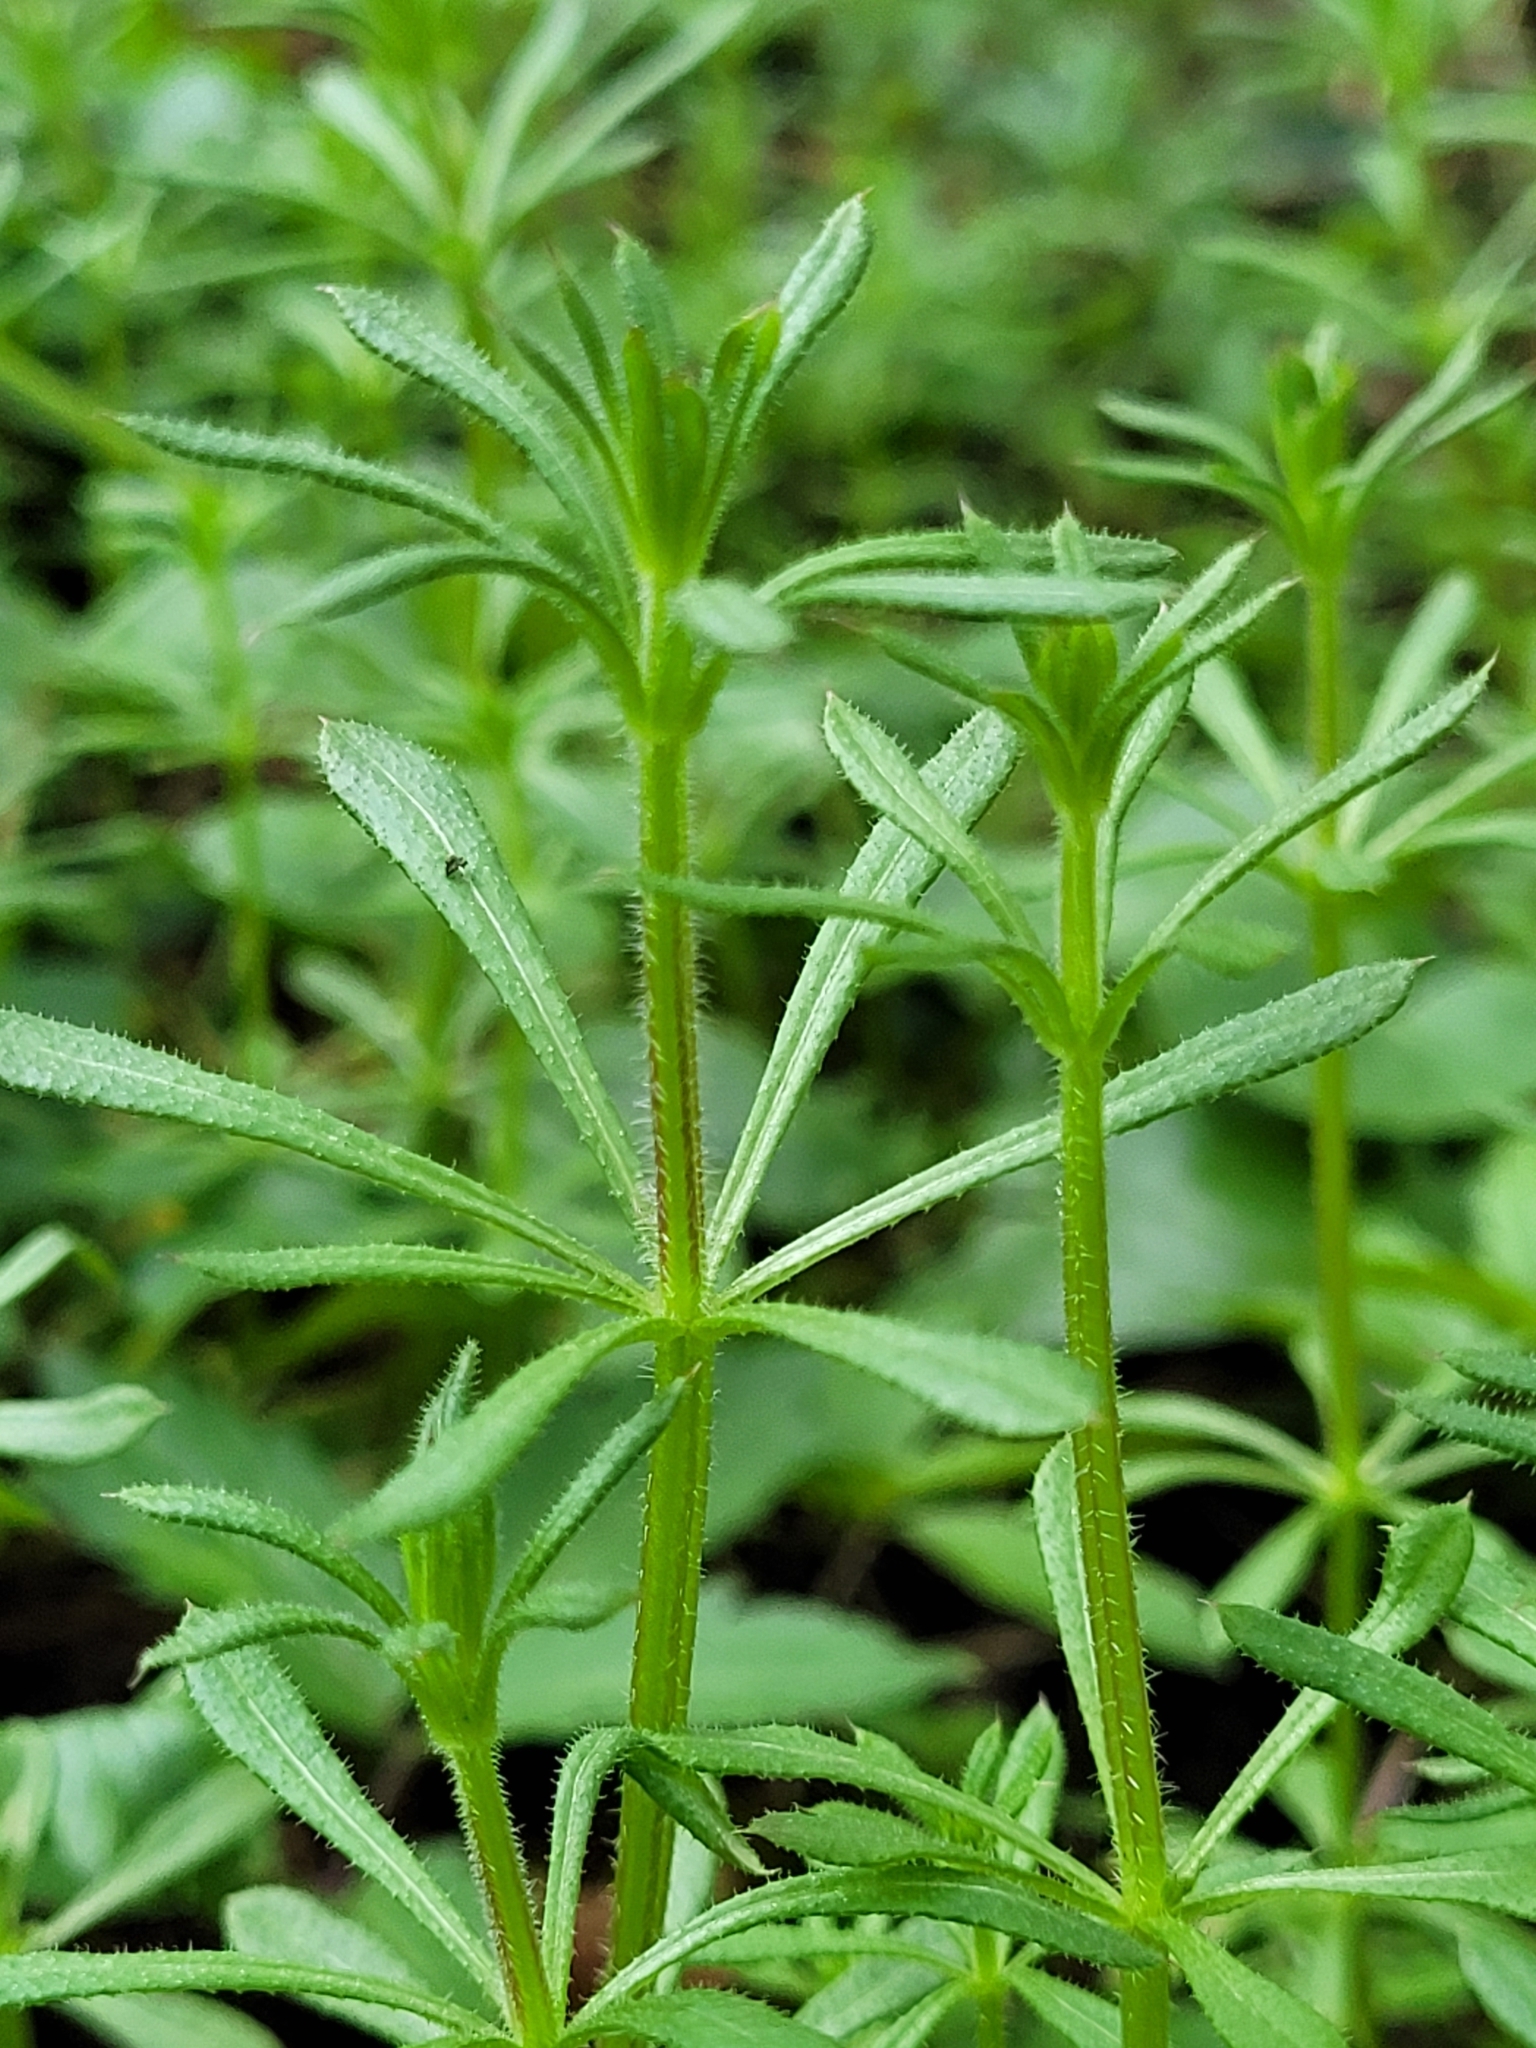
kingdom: Plantae
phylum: Tracheophyta
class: Magnoliopsida
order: Gentianales
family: Rubiaceae
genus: Galium
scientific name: Galium aparine
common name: Cleavers
